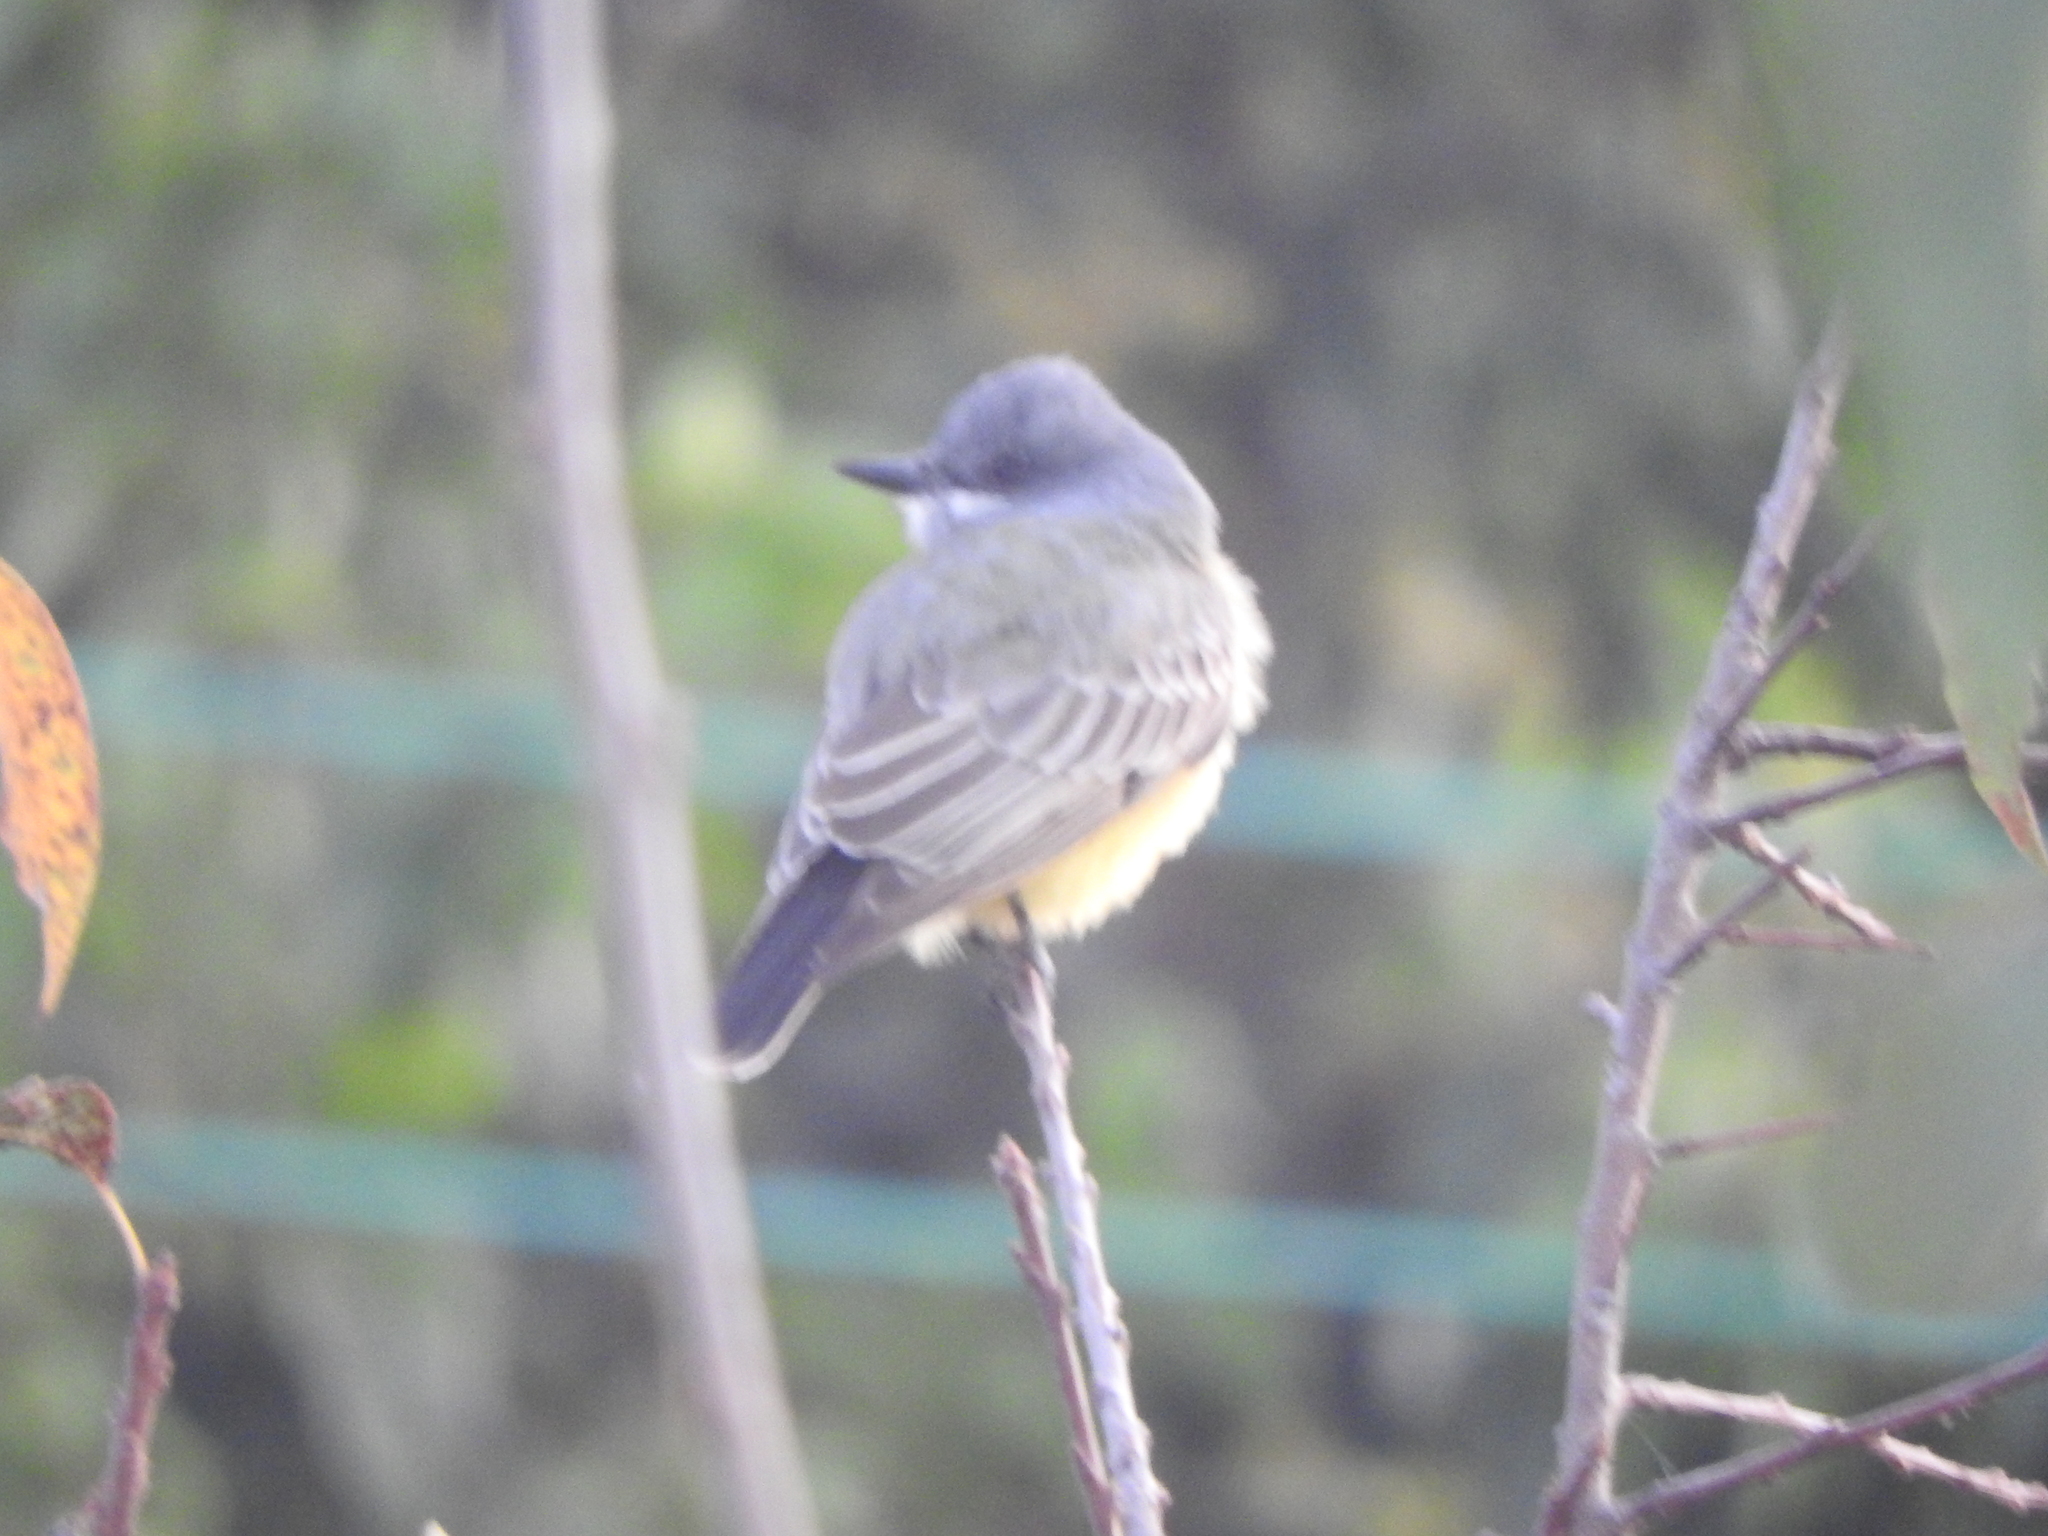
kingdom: Animalia
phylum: Chordata
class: Aves
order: Passeriformes
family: Tyrannidae
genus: Tyrannus
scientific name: Tyrannus vociferans
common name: Cassin's kingbird
